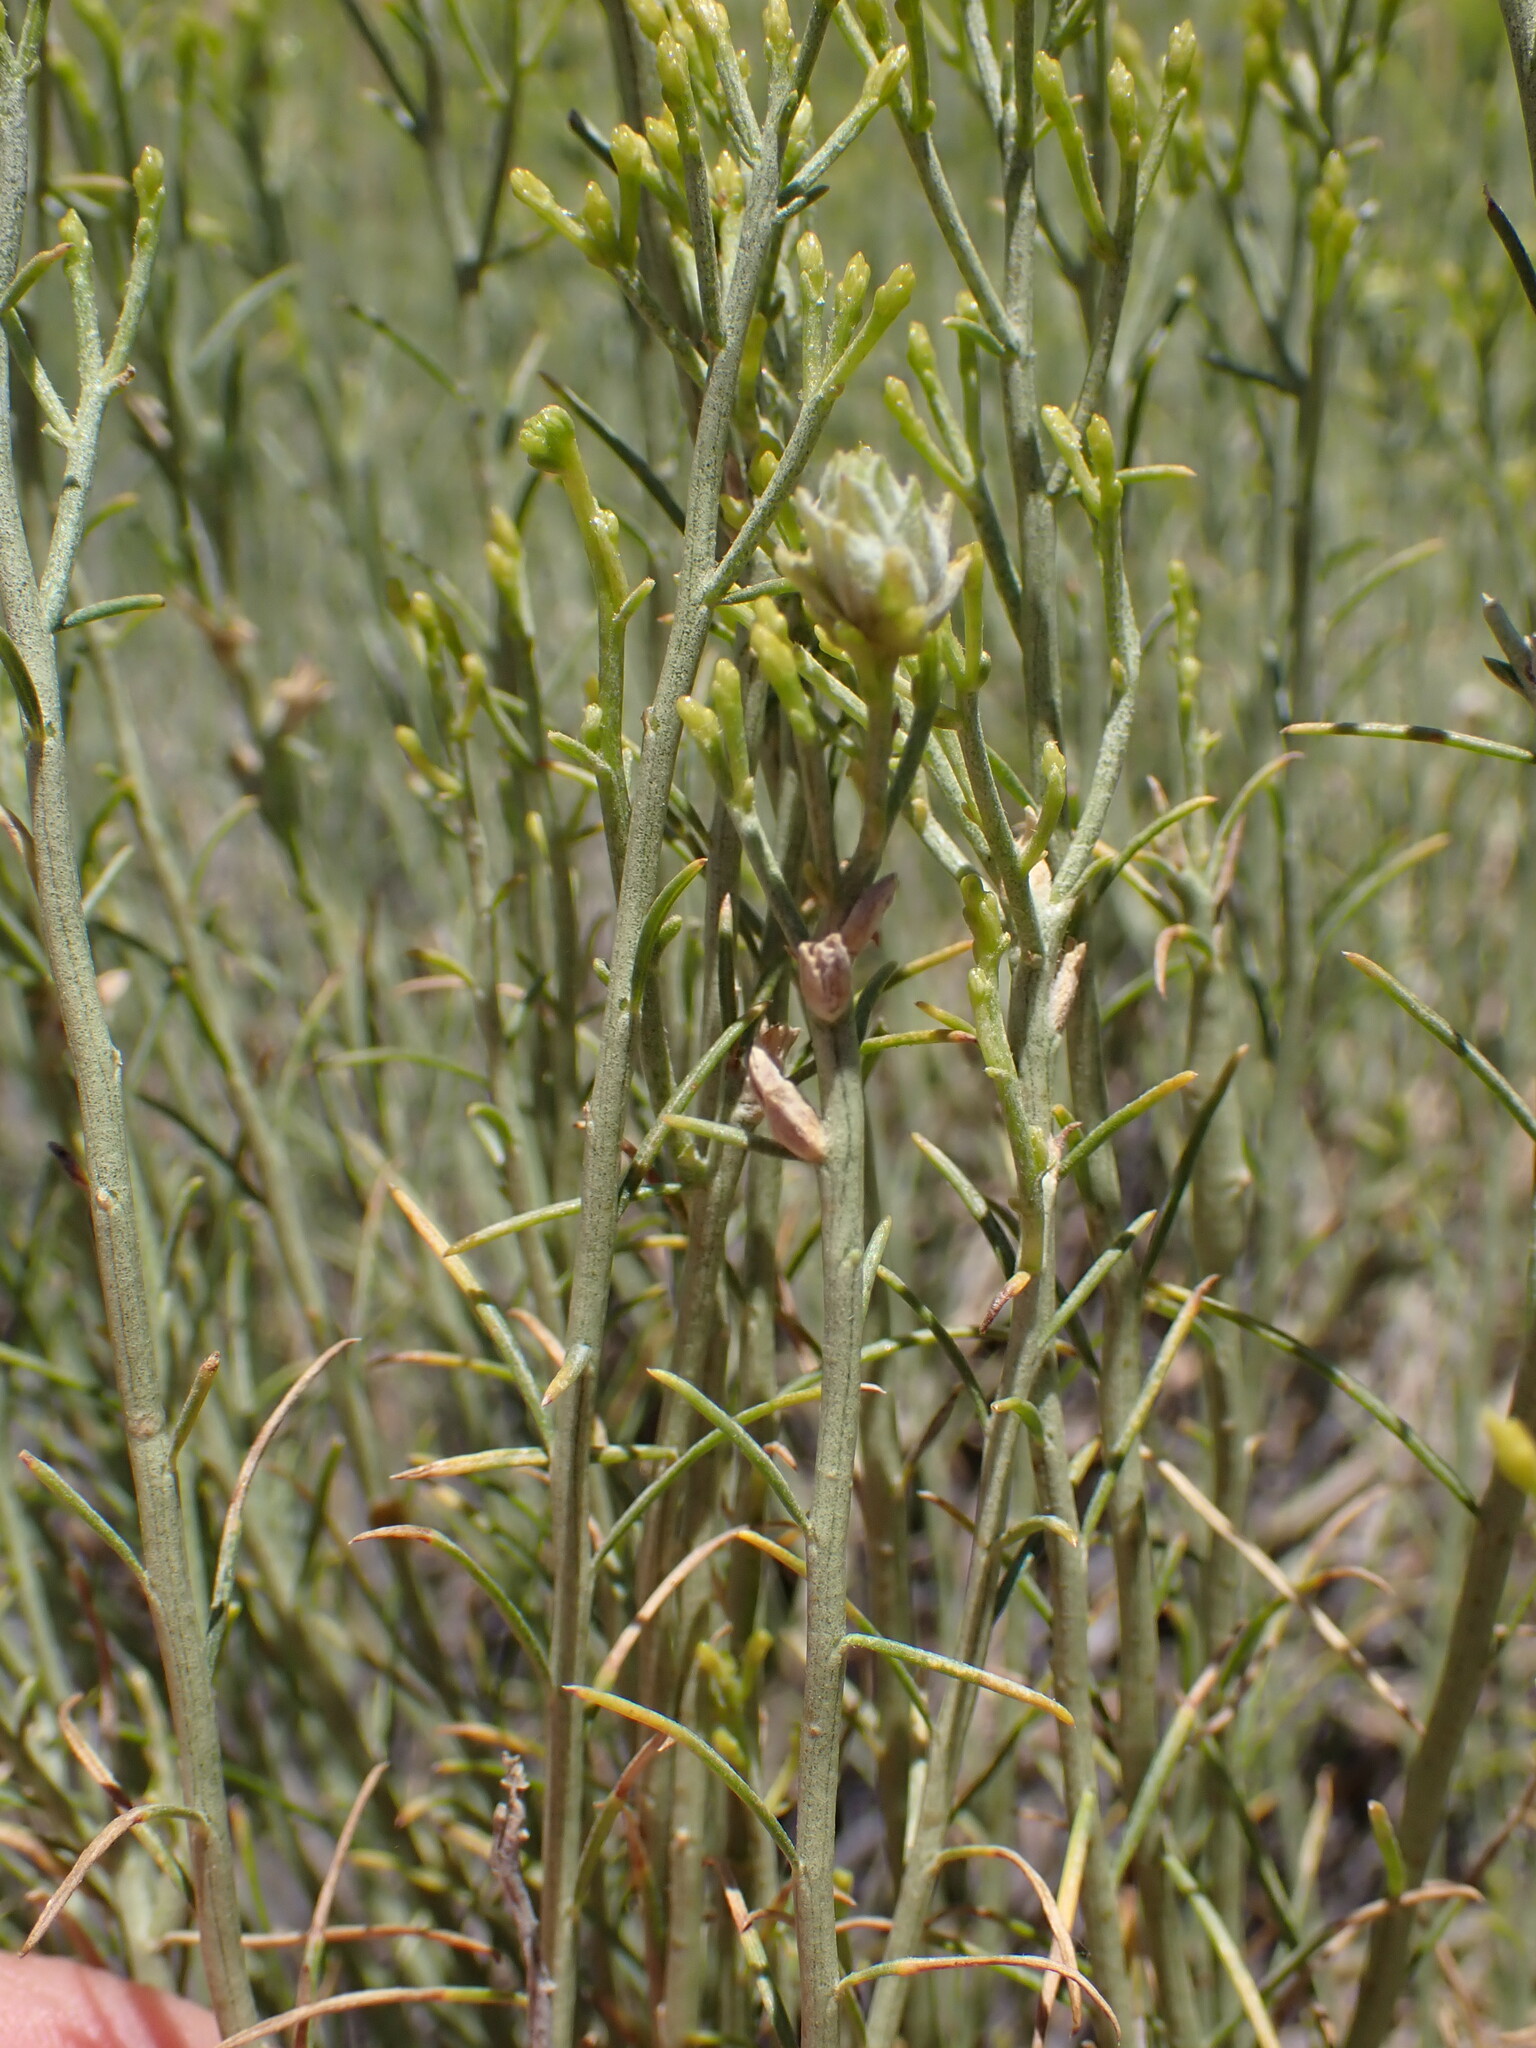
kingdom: Plantae
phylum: Tracheophyta
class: Magnoliopsida
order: Asterales
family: Asteraceae
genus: Ericameria
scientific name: Ericameria nauseosa
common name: Rubber rabbitbrush
